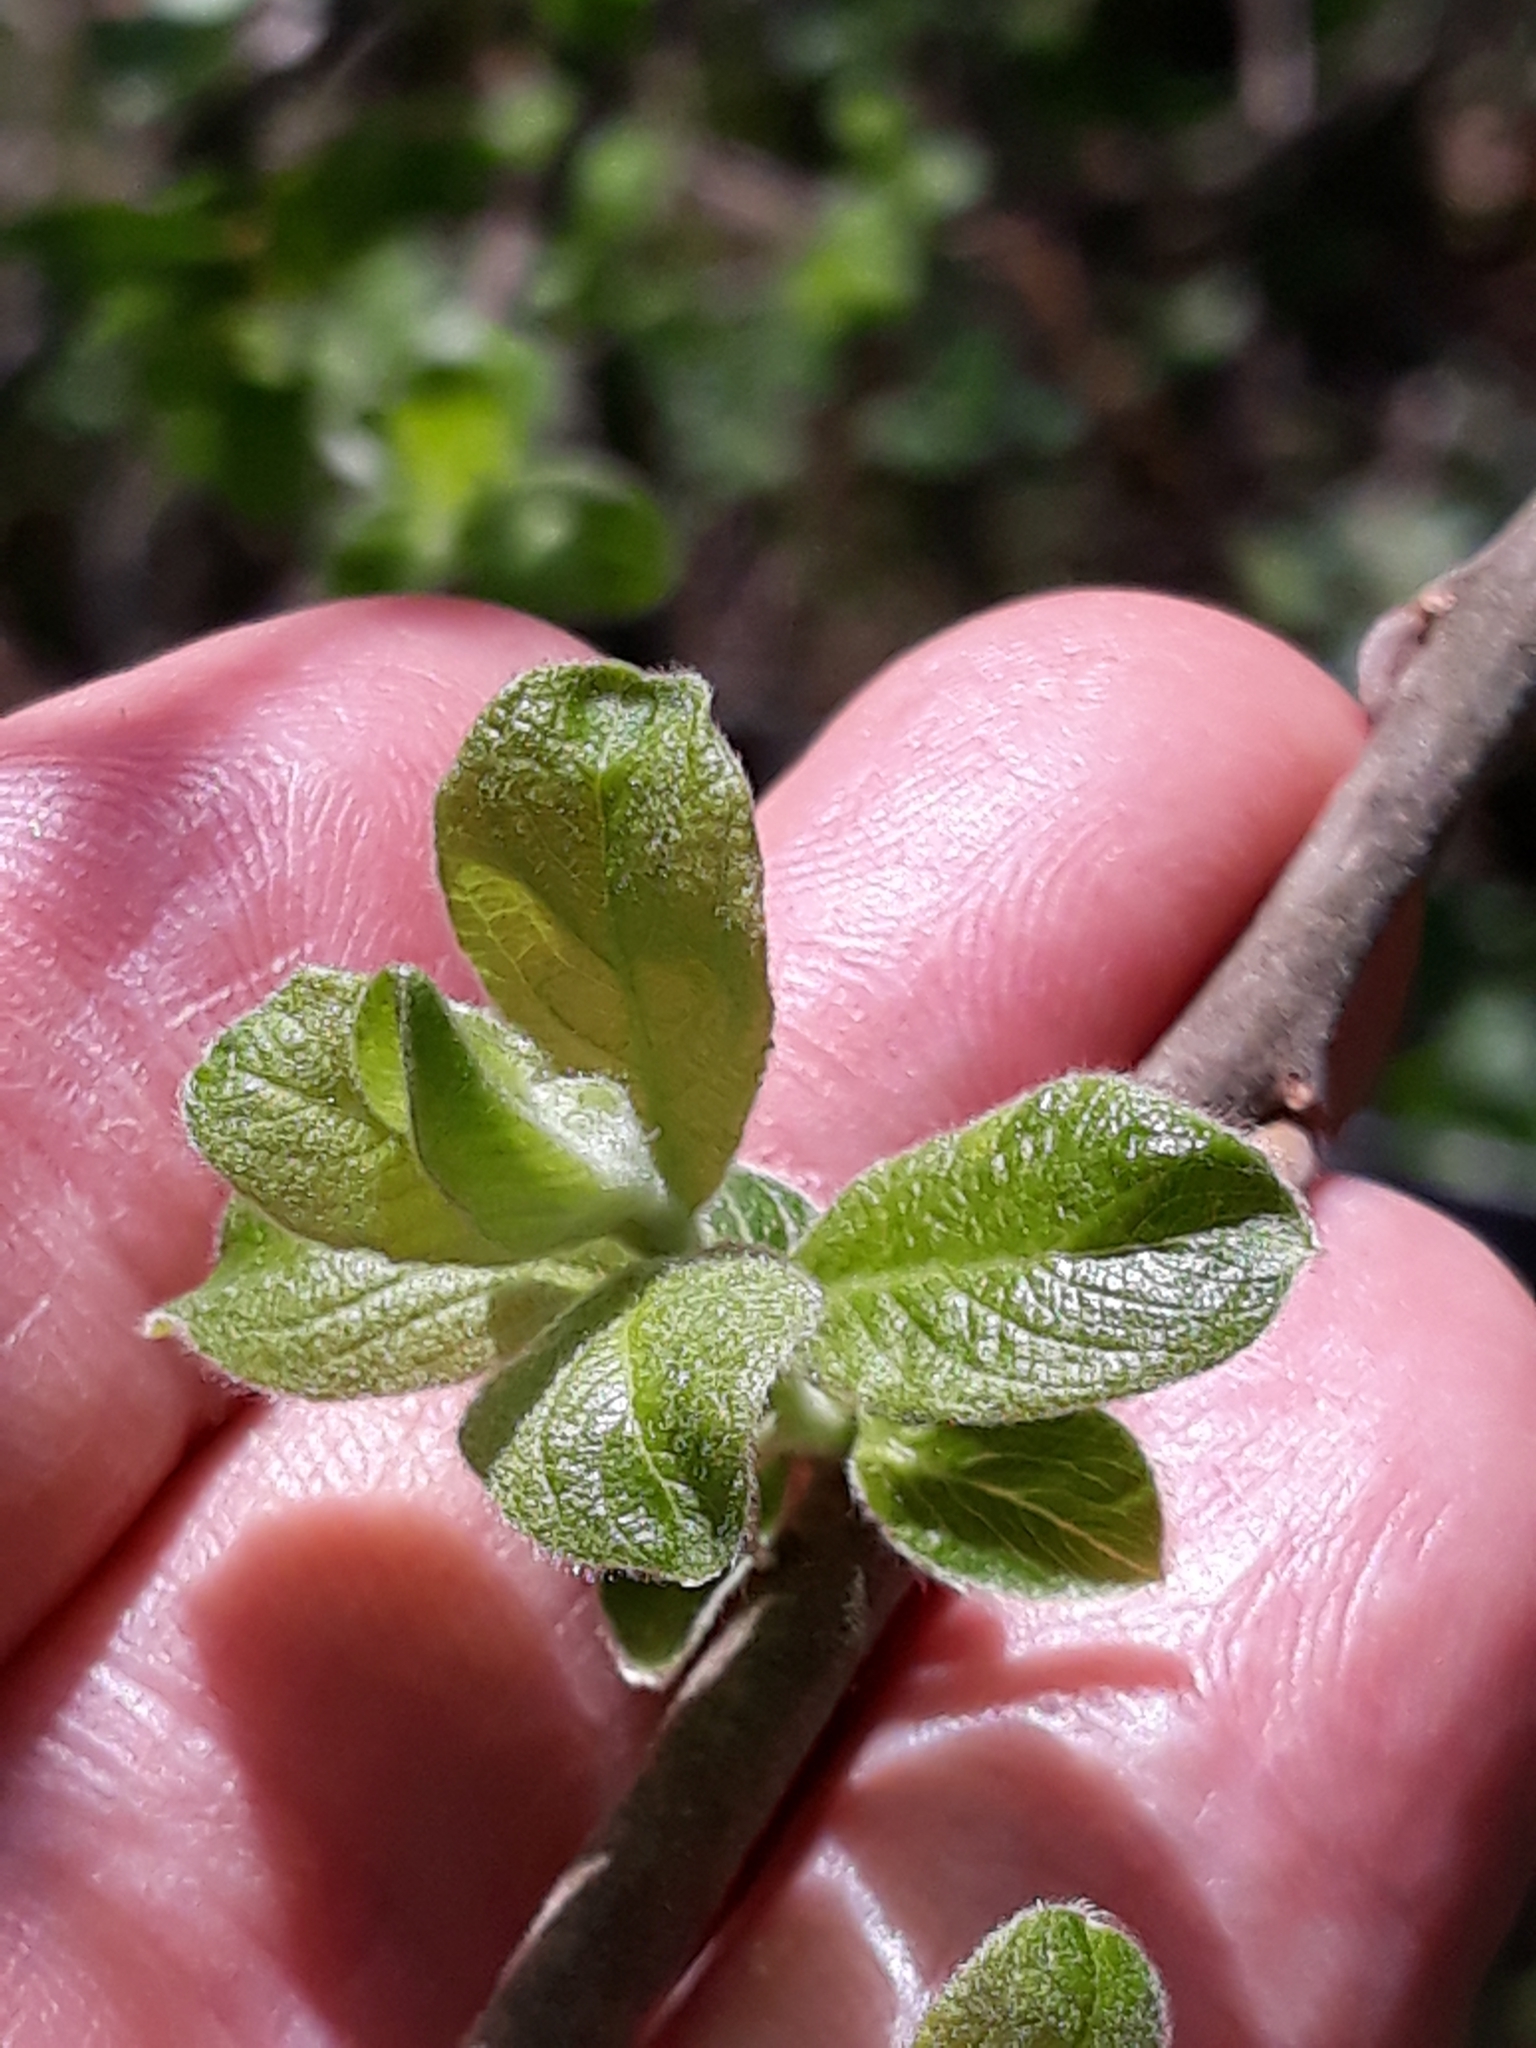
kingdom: Plantae
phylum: Tracheophyta
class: Magnoliopsida
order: Malpighiales
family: Salicaceae
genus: Salix
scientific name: Salix caprea
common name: Goat willow
